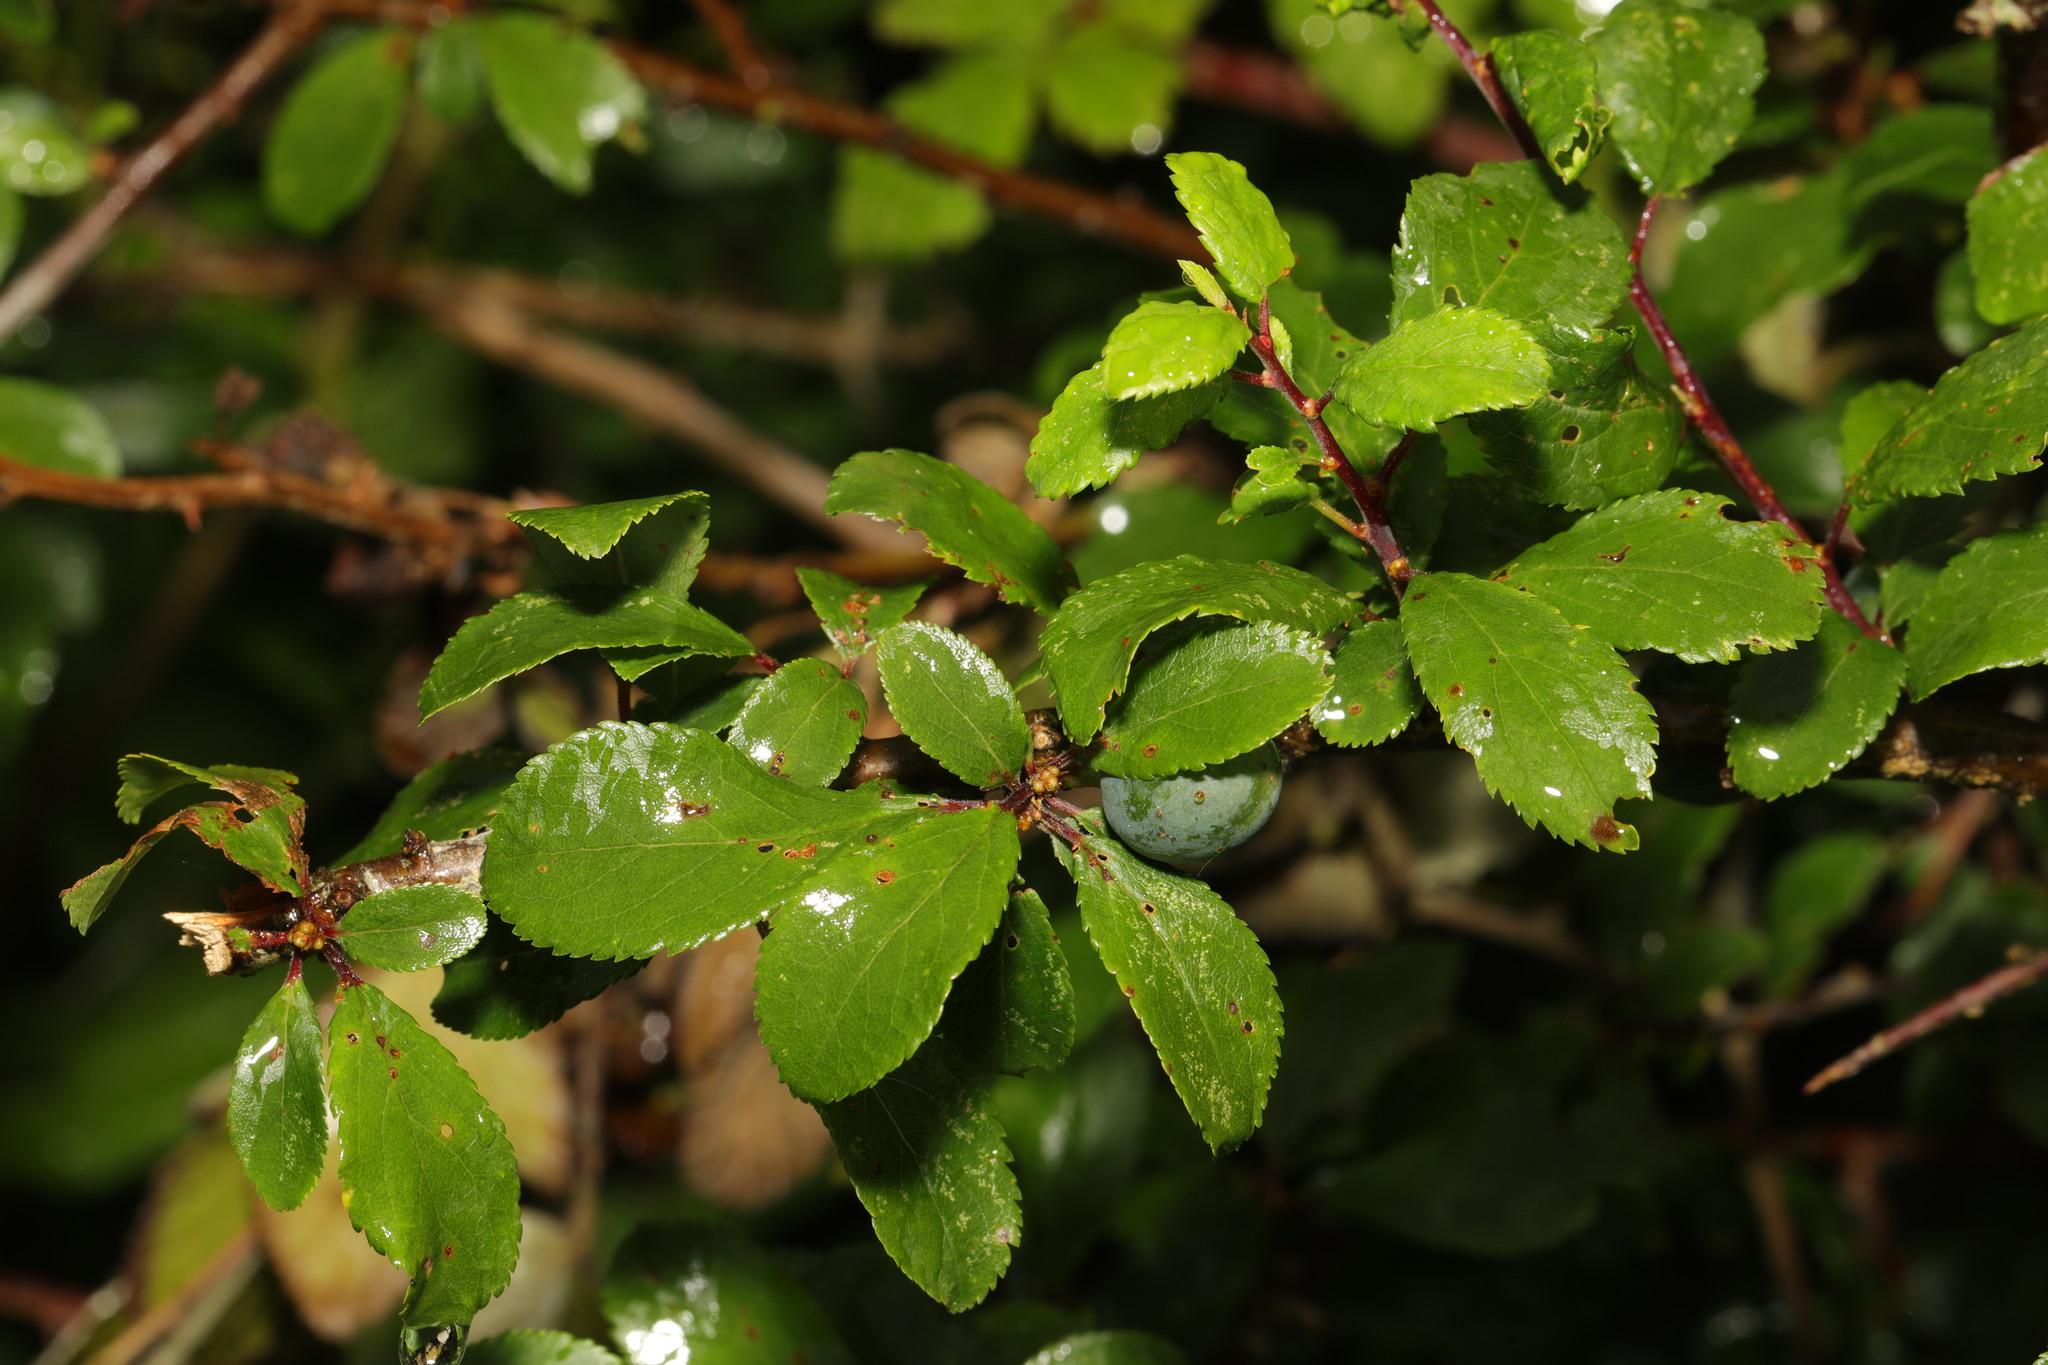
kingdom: Plantae
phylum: Tracheophyta
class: Magnoliopsida
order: Rosales
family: Rosaceae
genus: Prunus
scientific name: Prunus spinosa
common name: Blackthorn
